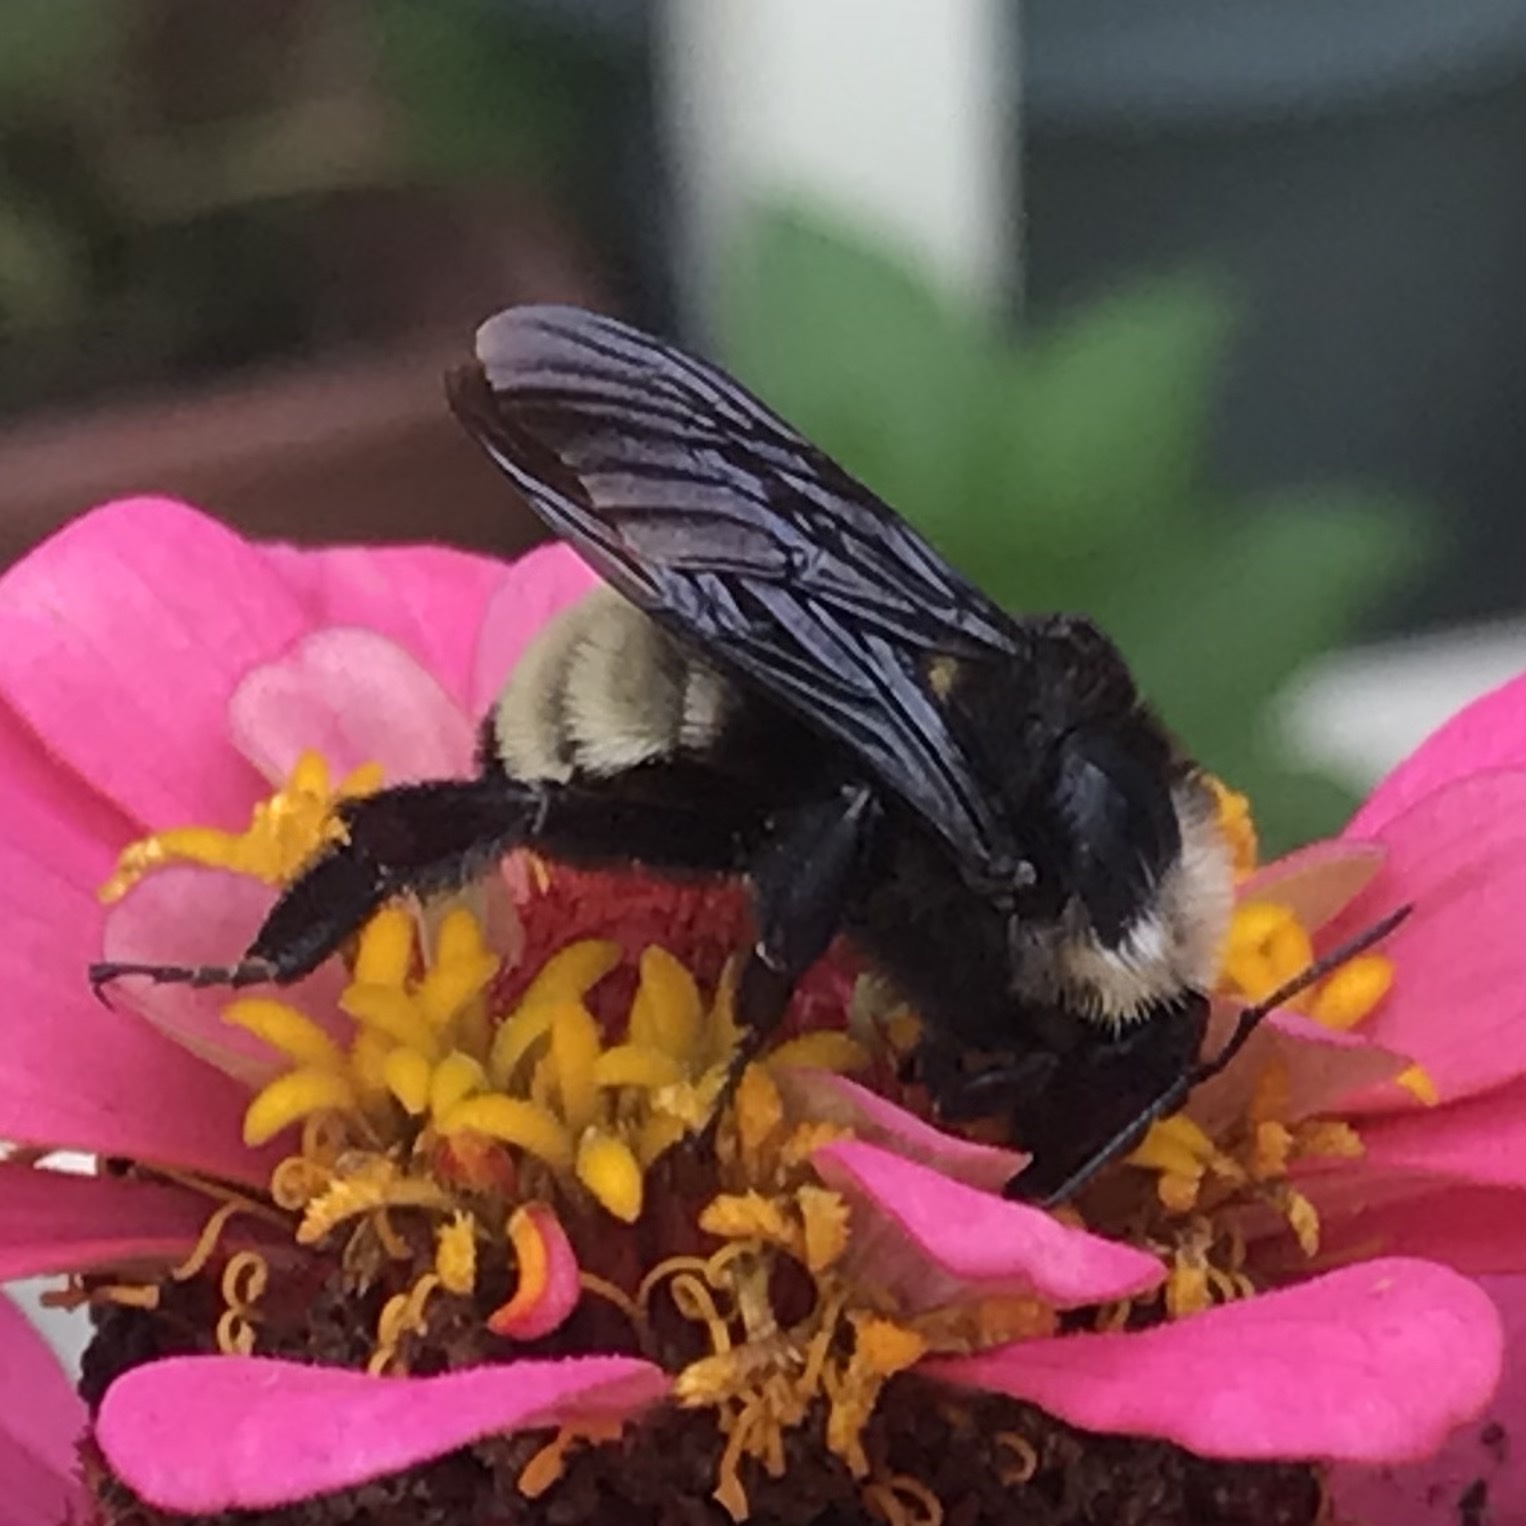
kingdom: Animalia
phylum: Arthropoda
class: Insecta
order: Hymenoptera
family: Apidae
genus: Bombus
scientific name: Bombus pensylvanicus
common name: Bumble bee
